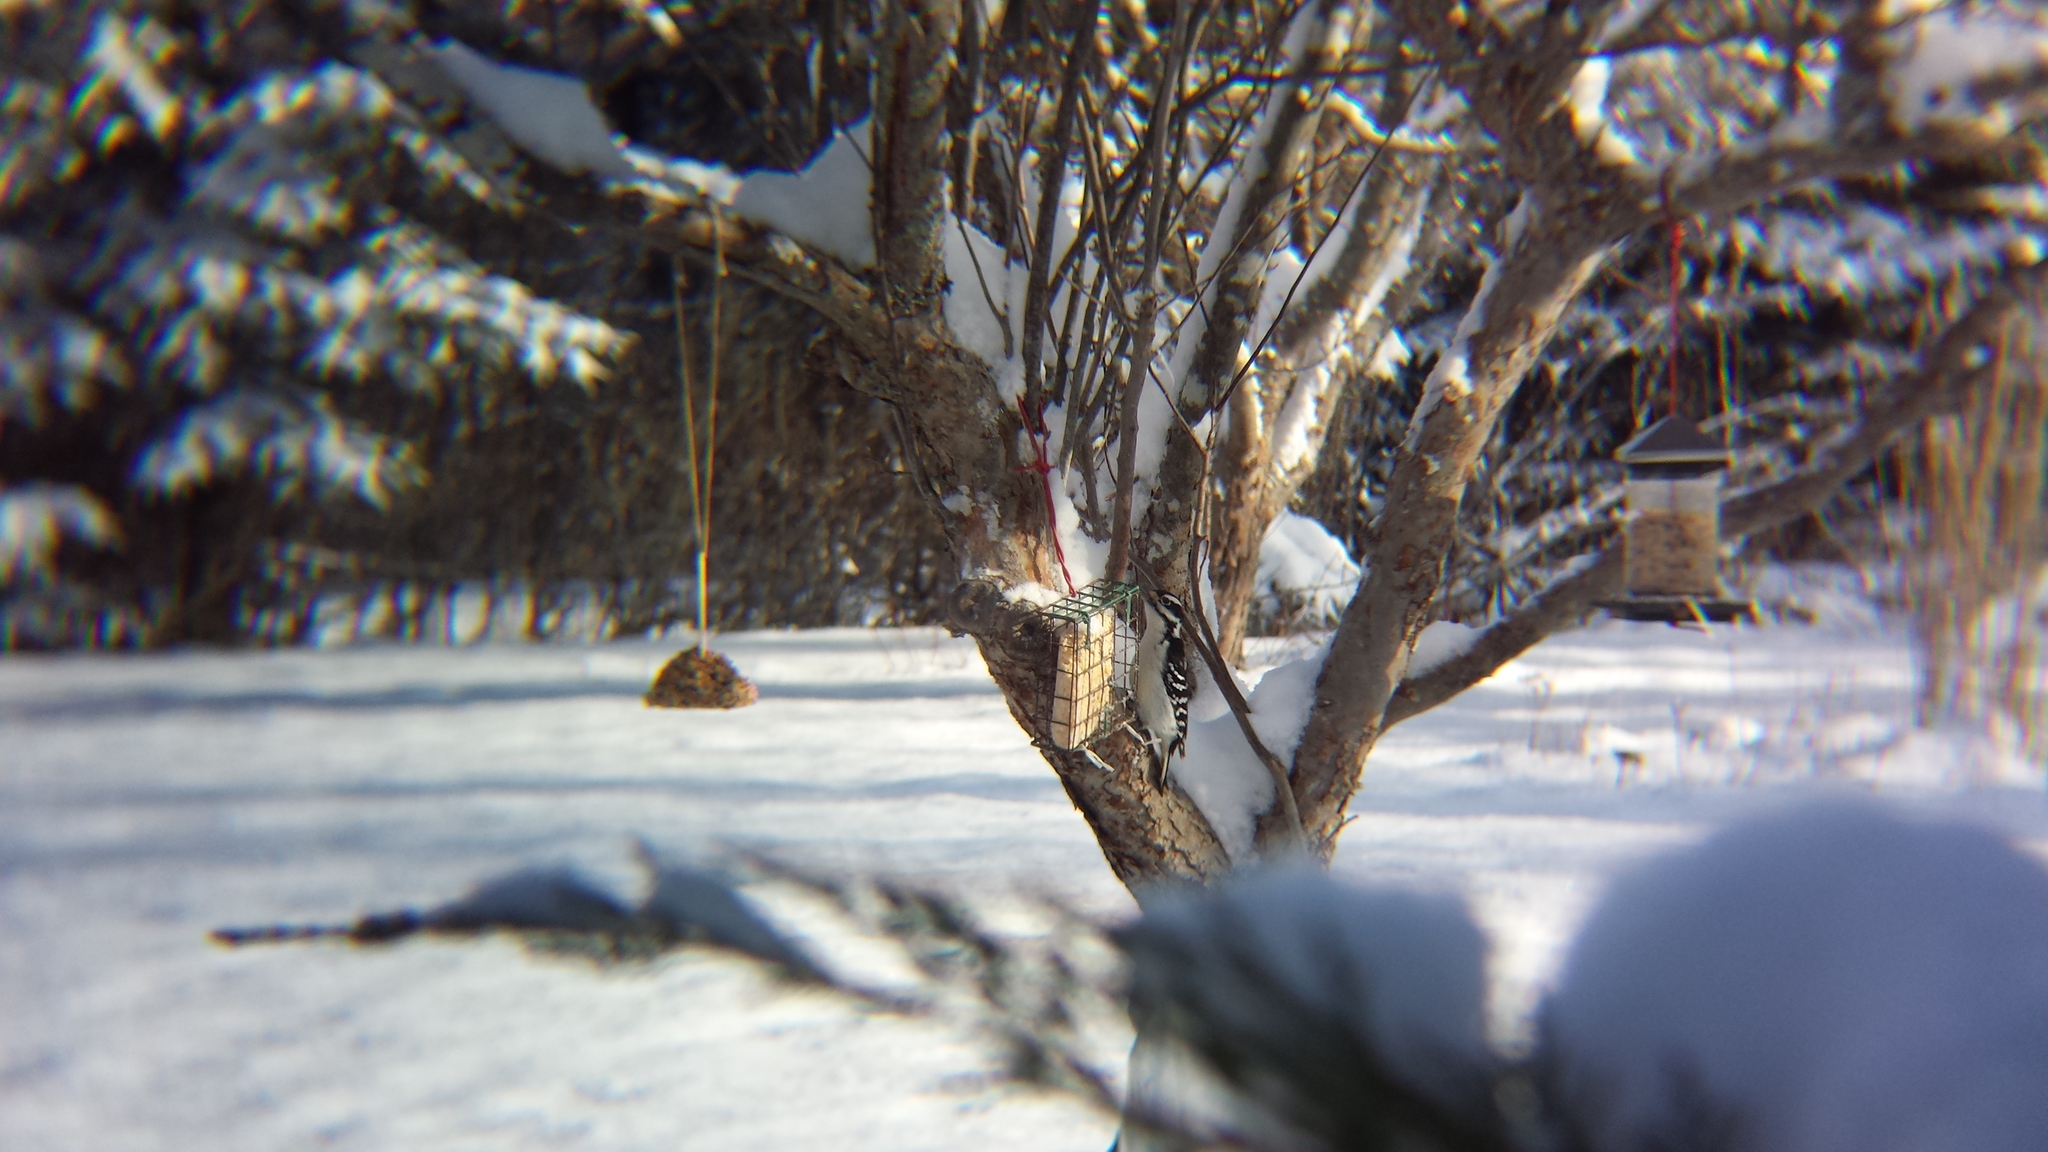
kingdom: Animalia
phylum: Chordata
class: Aves
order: Piciformes
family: Picidae
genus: Leuconotopicus
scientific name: Leuconotopicus villosus
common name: Hairy woodpecker
